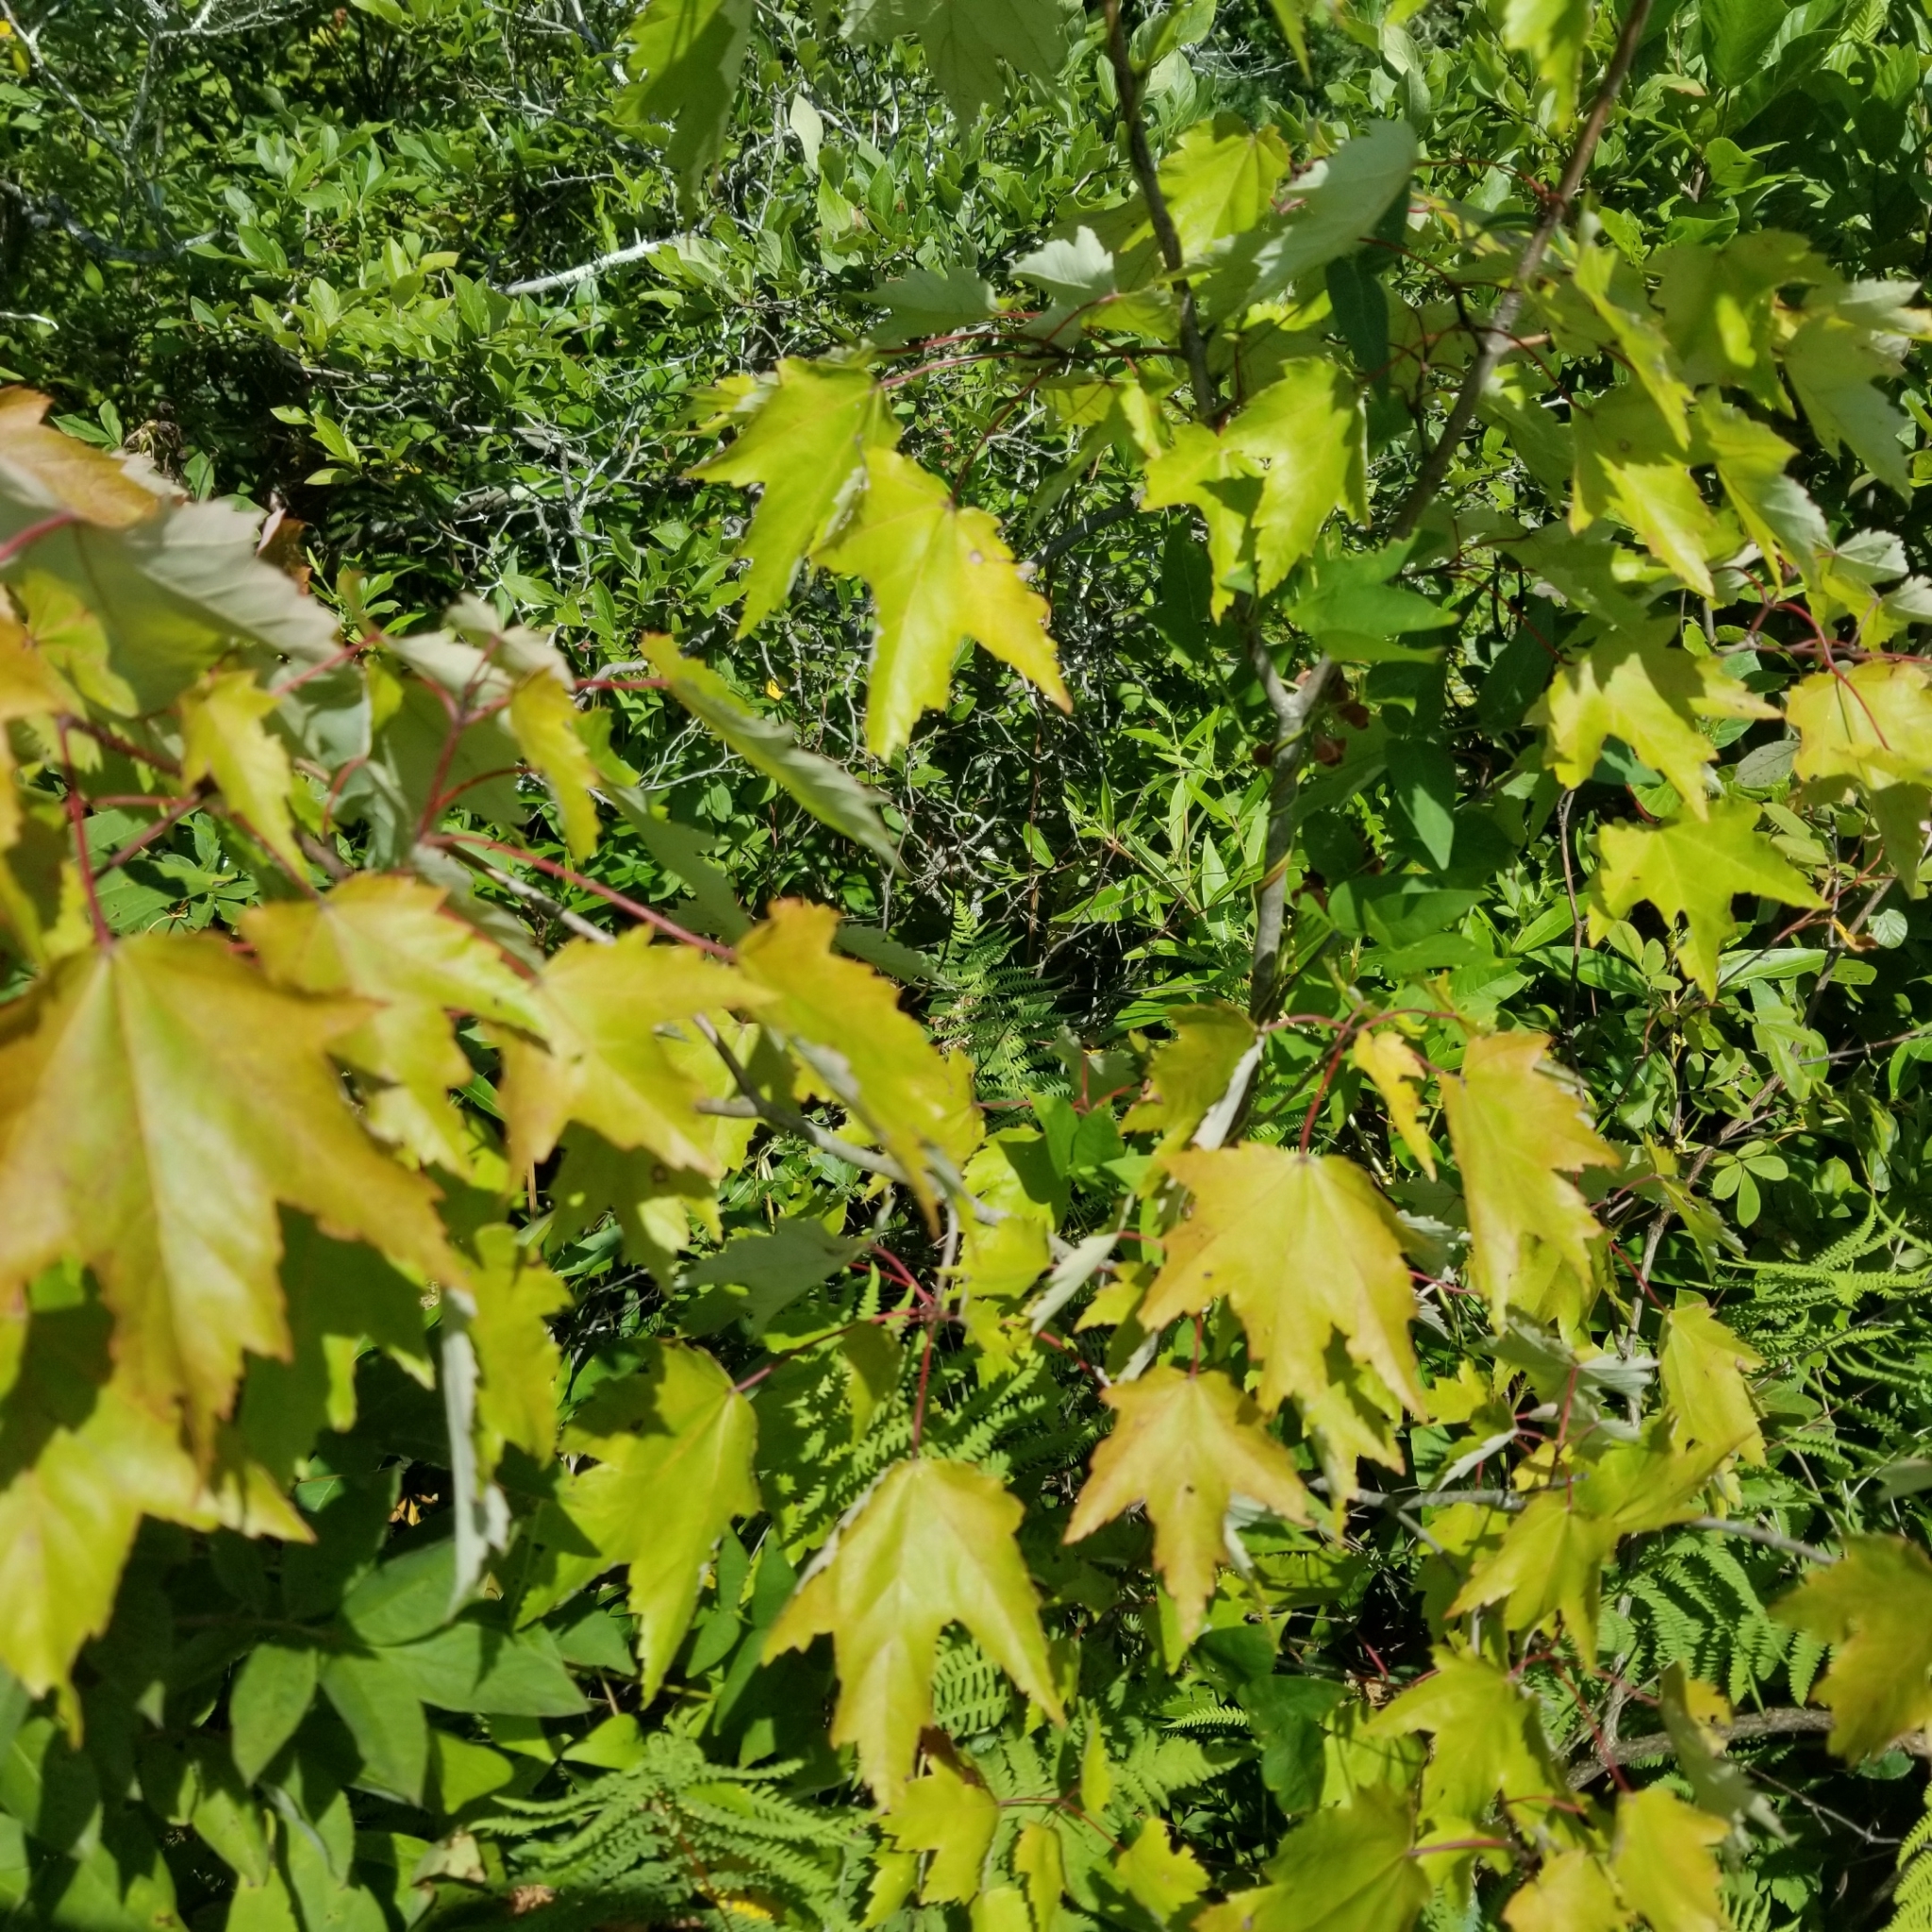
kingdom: Plantae
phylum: Tracheophyta
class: Magnoliopsida
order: Sapindales
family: Sapindaceae
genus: Acer
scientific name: Acer rubrum
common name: Red maple
